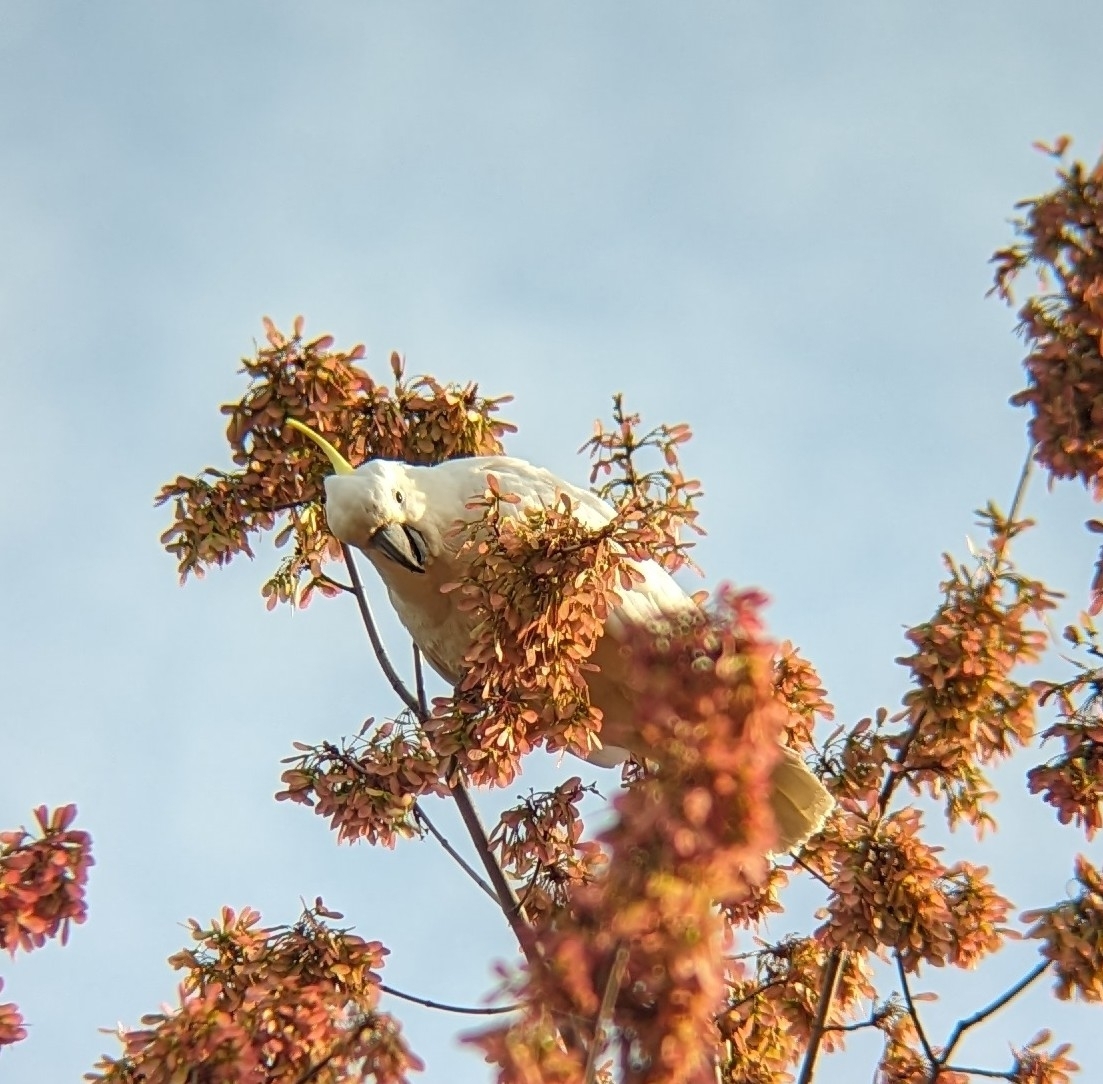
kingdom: Animalia
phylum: Chordata
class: Aves
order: Psittaciformes
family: Psittacidae
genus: Cacatua
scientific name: Cacatua galerita
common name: Sulphur-crested cockatoo
